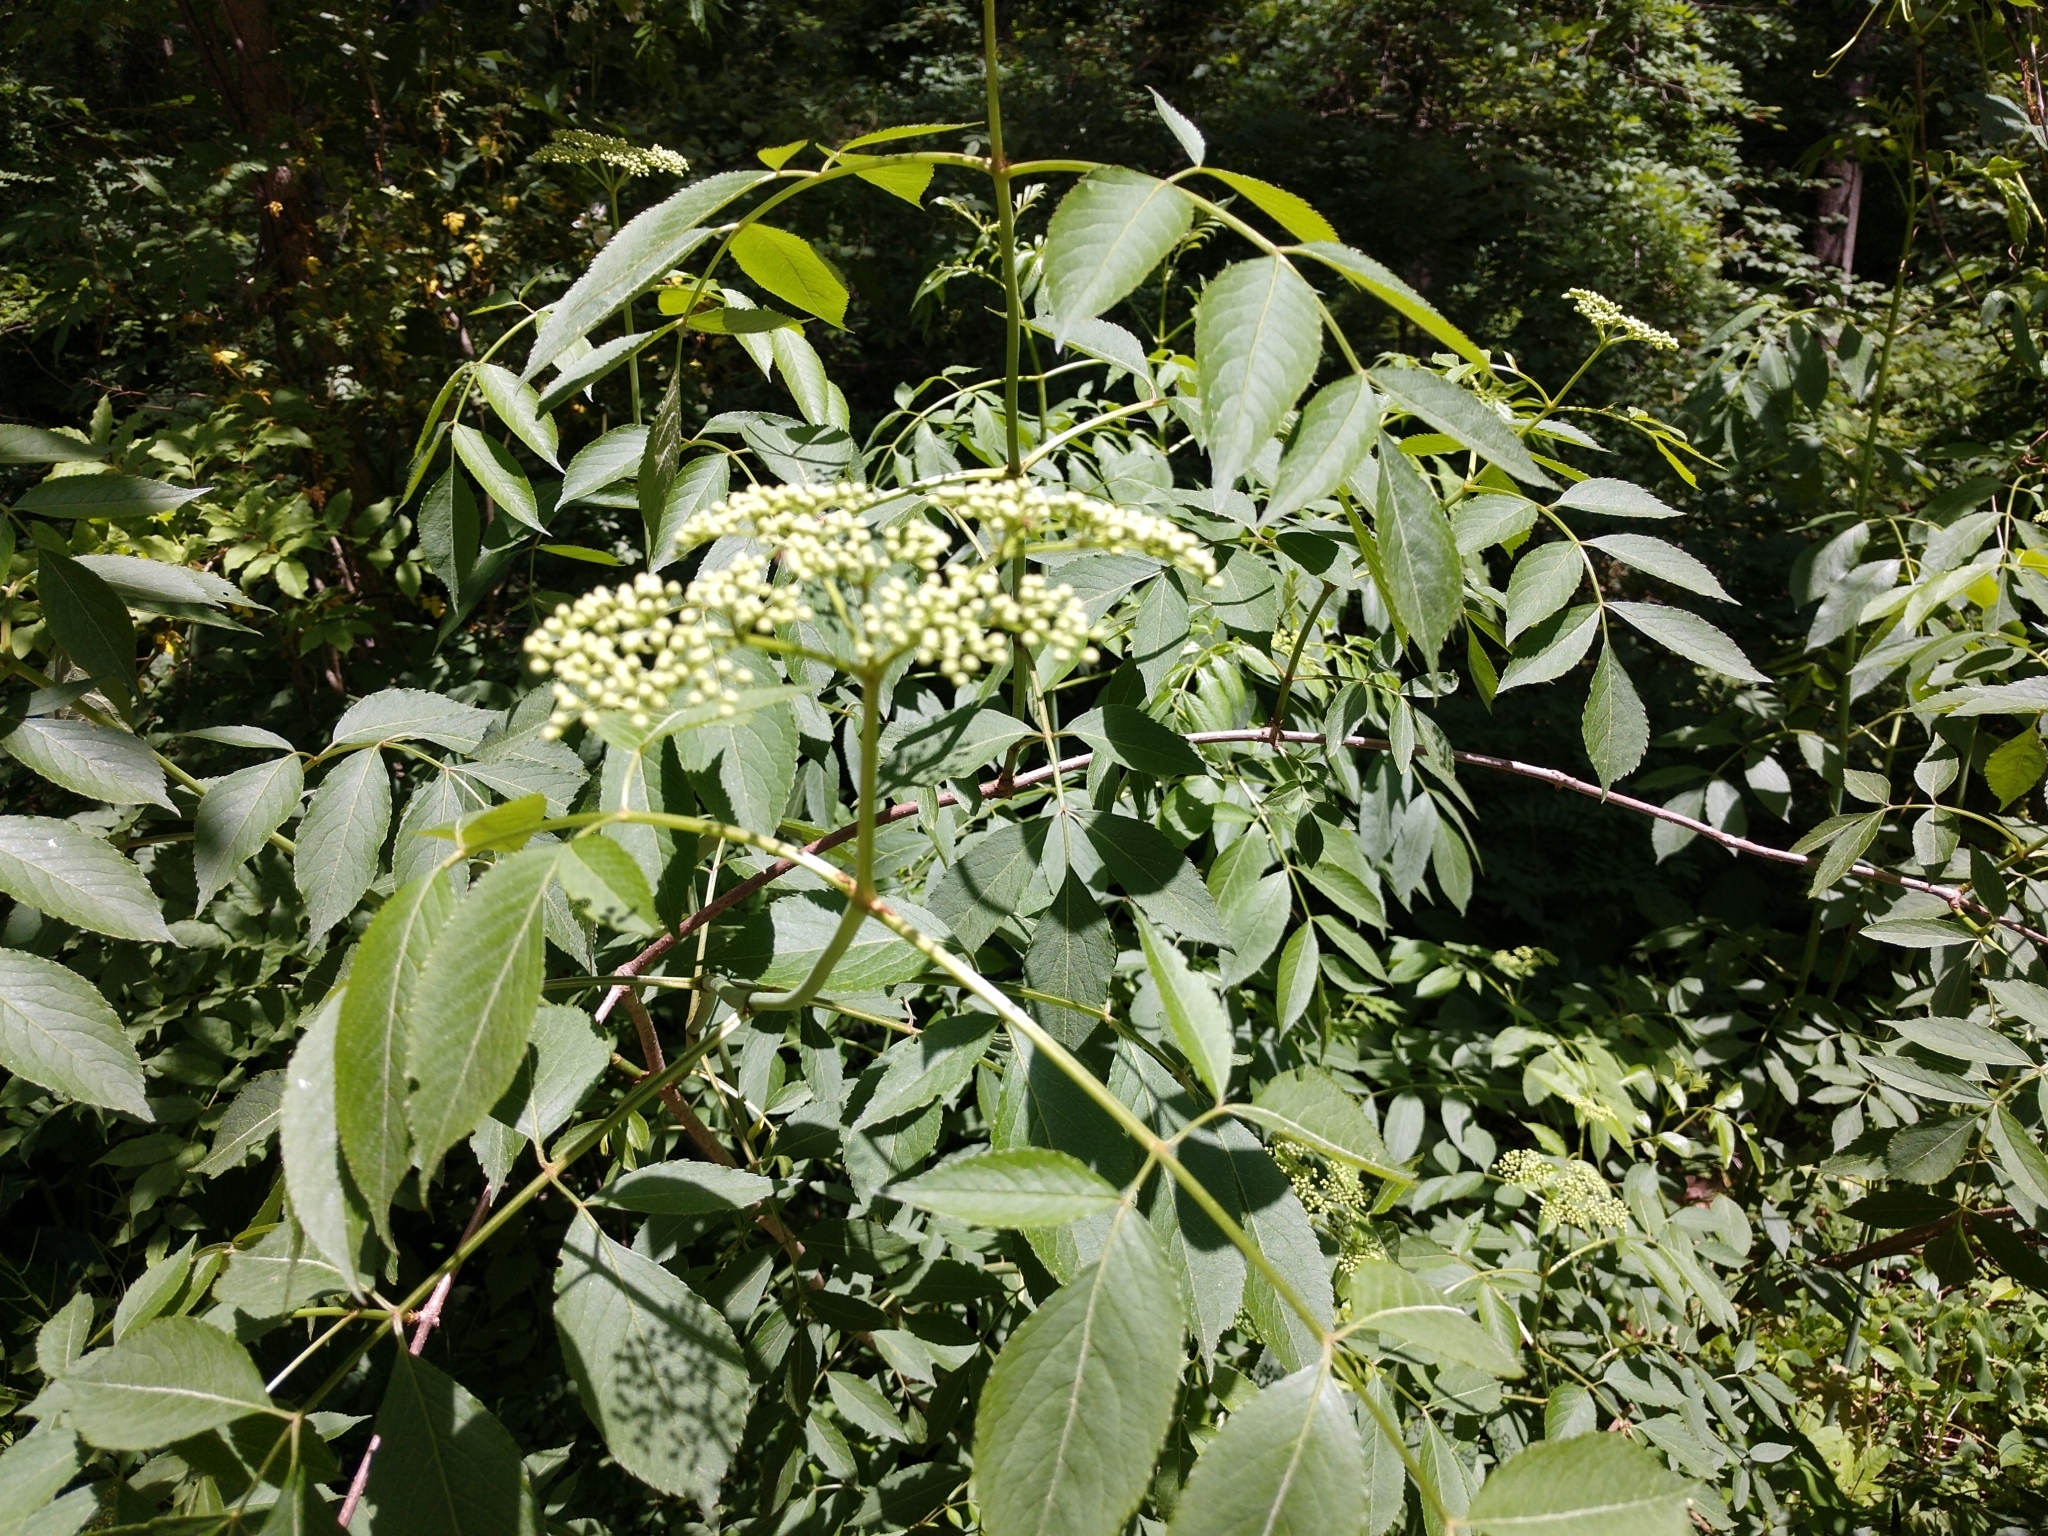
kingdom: Plantae
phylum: Tracheophyta
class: Magnoliopsida
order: Dipsacales
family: Viburnaceae
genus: Sambucus
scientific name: Sambucus canadensis
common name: American elder
